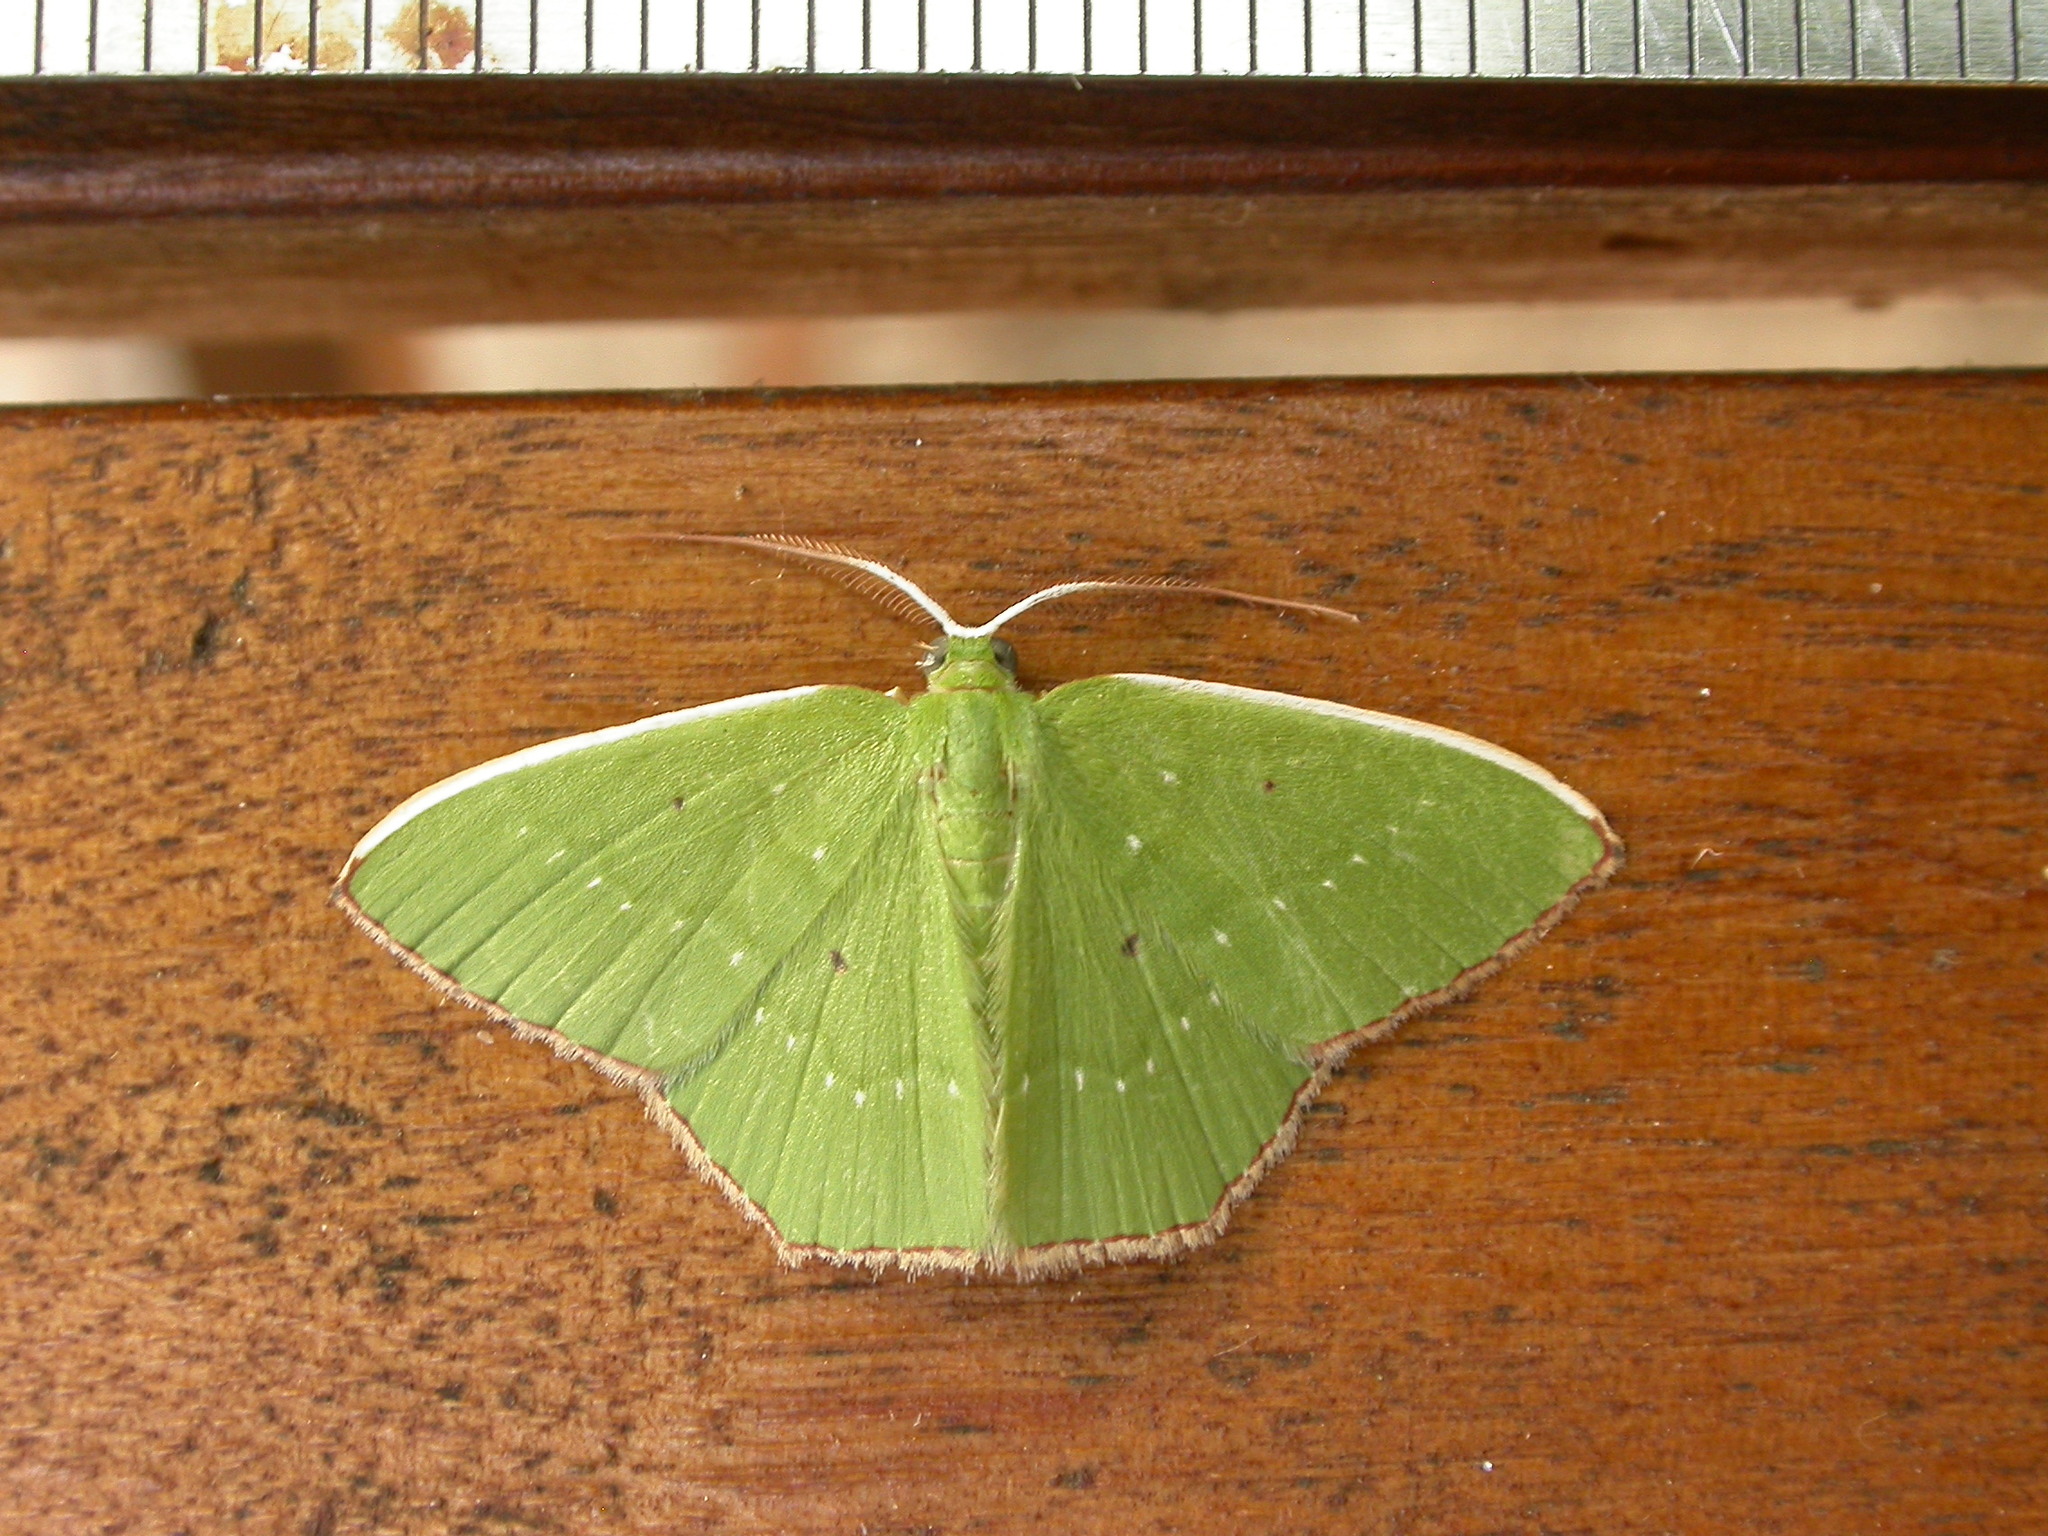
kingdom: Animalia
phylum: Arthropoda
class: Insecta
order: Lepidoptera
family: Geometridae
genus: Albinospila
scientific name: Albinospila floresaria
